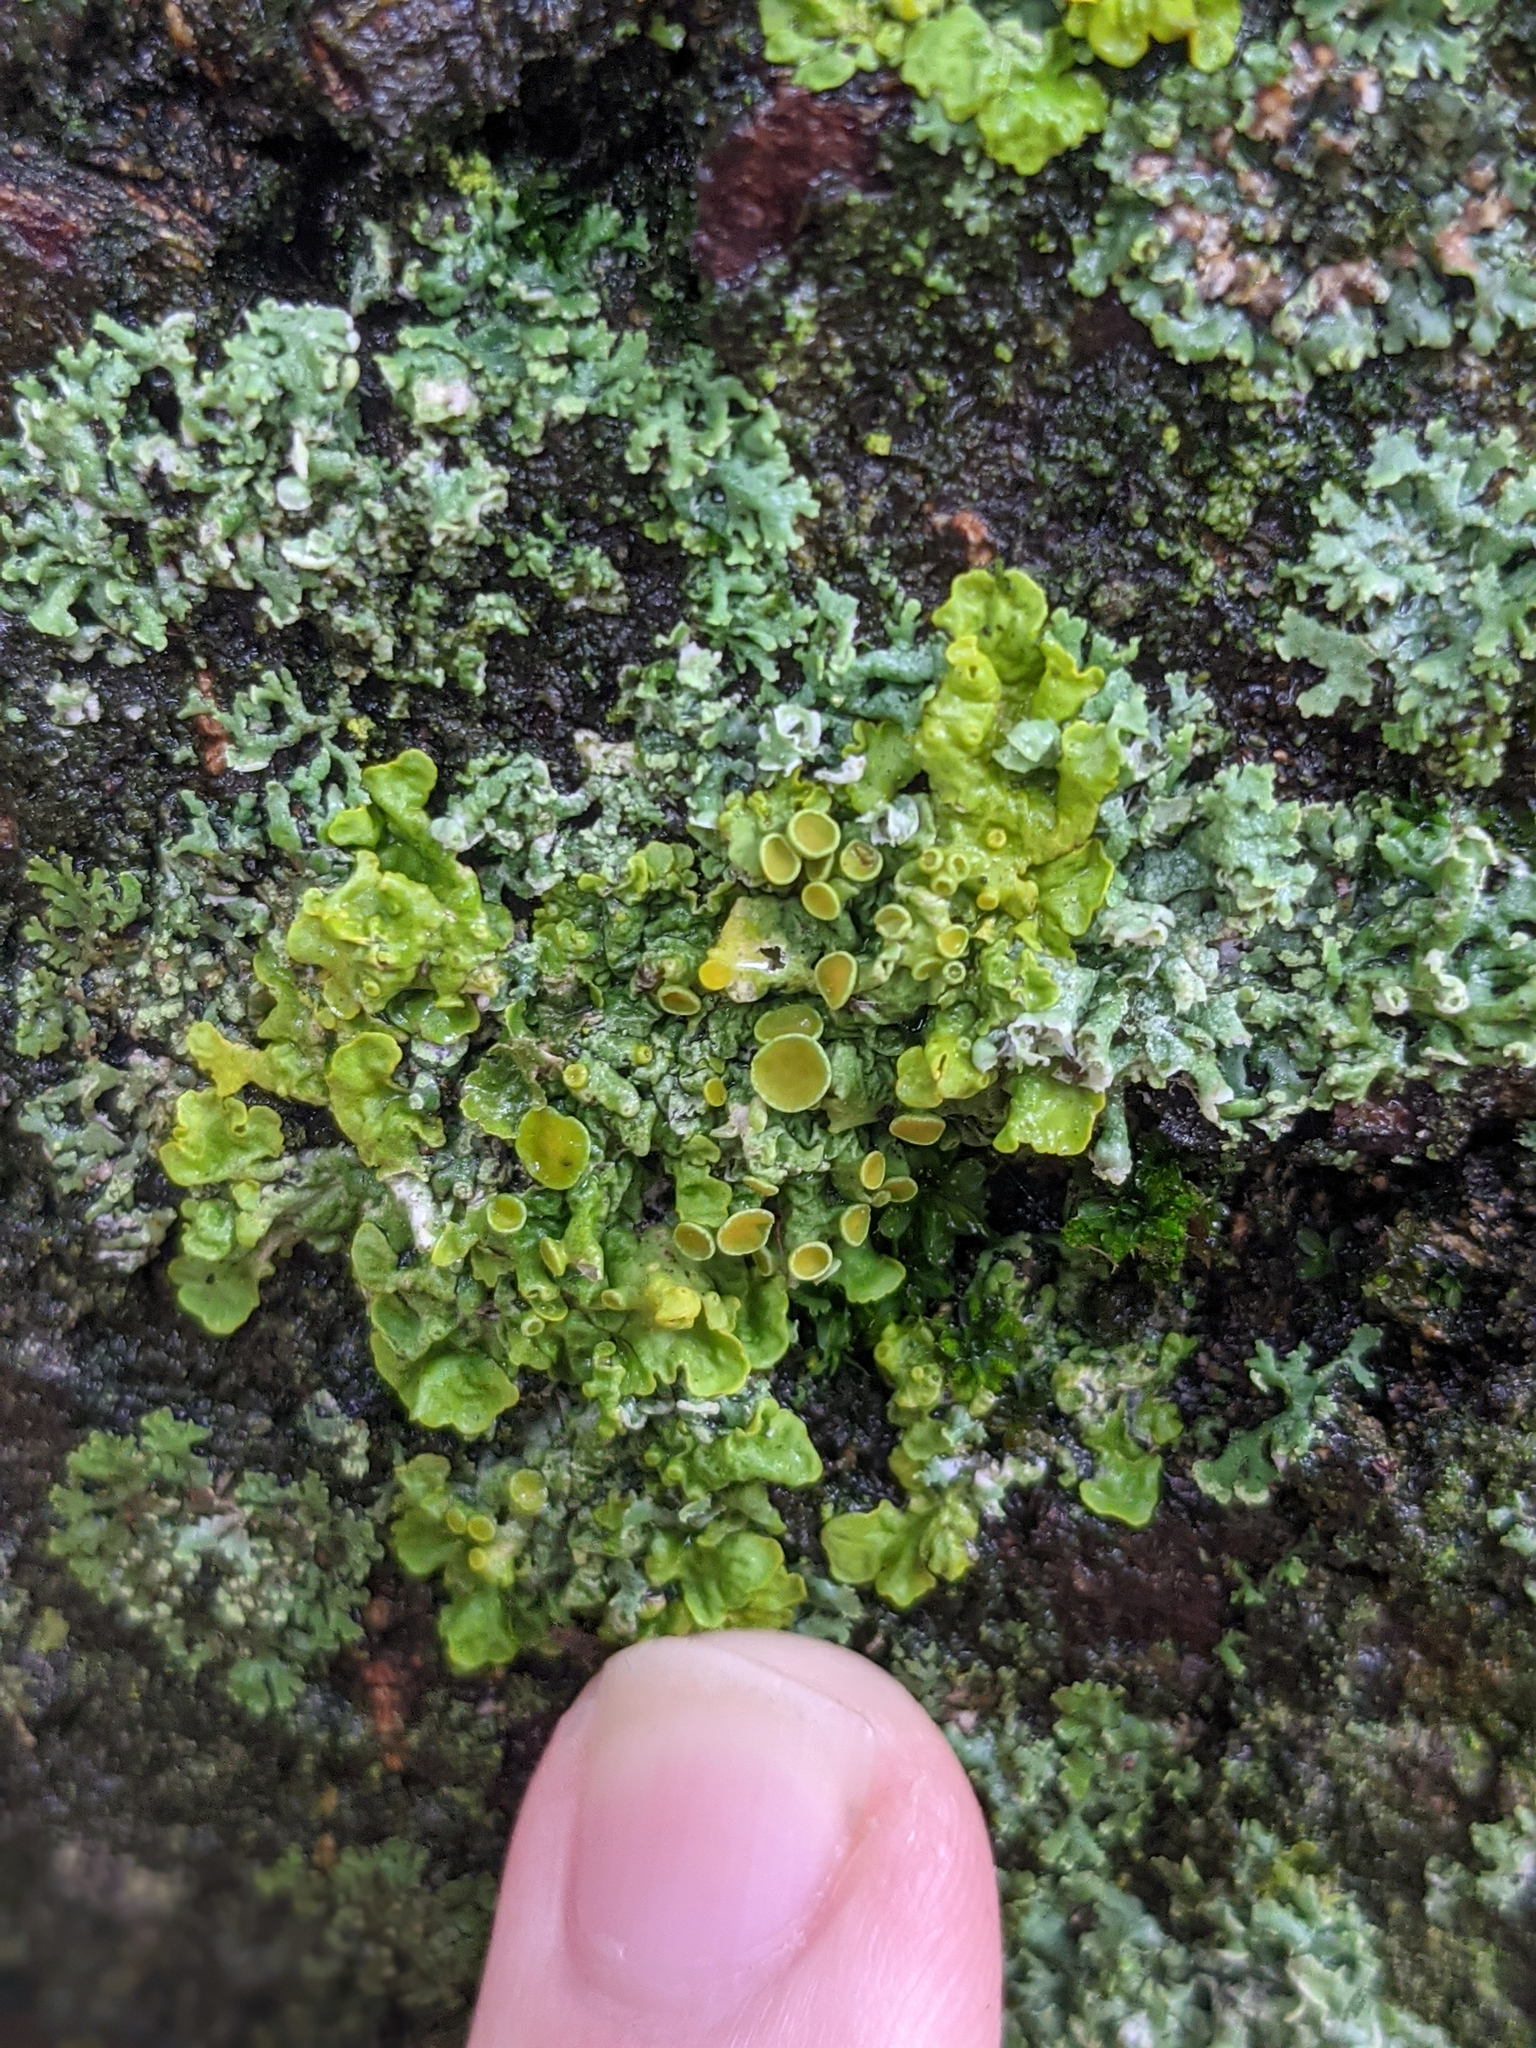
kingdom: Fungi
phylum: Ascomycota
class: Lecanoromycetes
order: Teloschistales
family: Teloschistaceae
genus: Xanthoria
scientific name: Xanthoria parietina
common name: Common orange lichen
